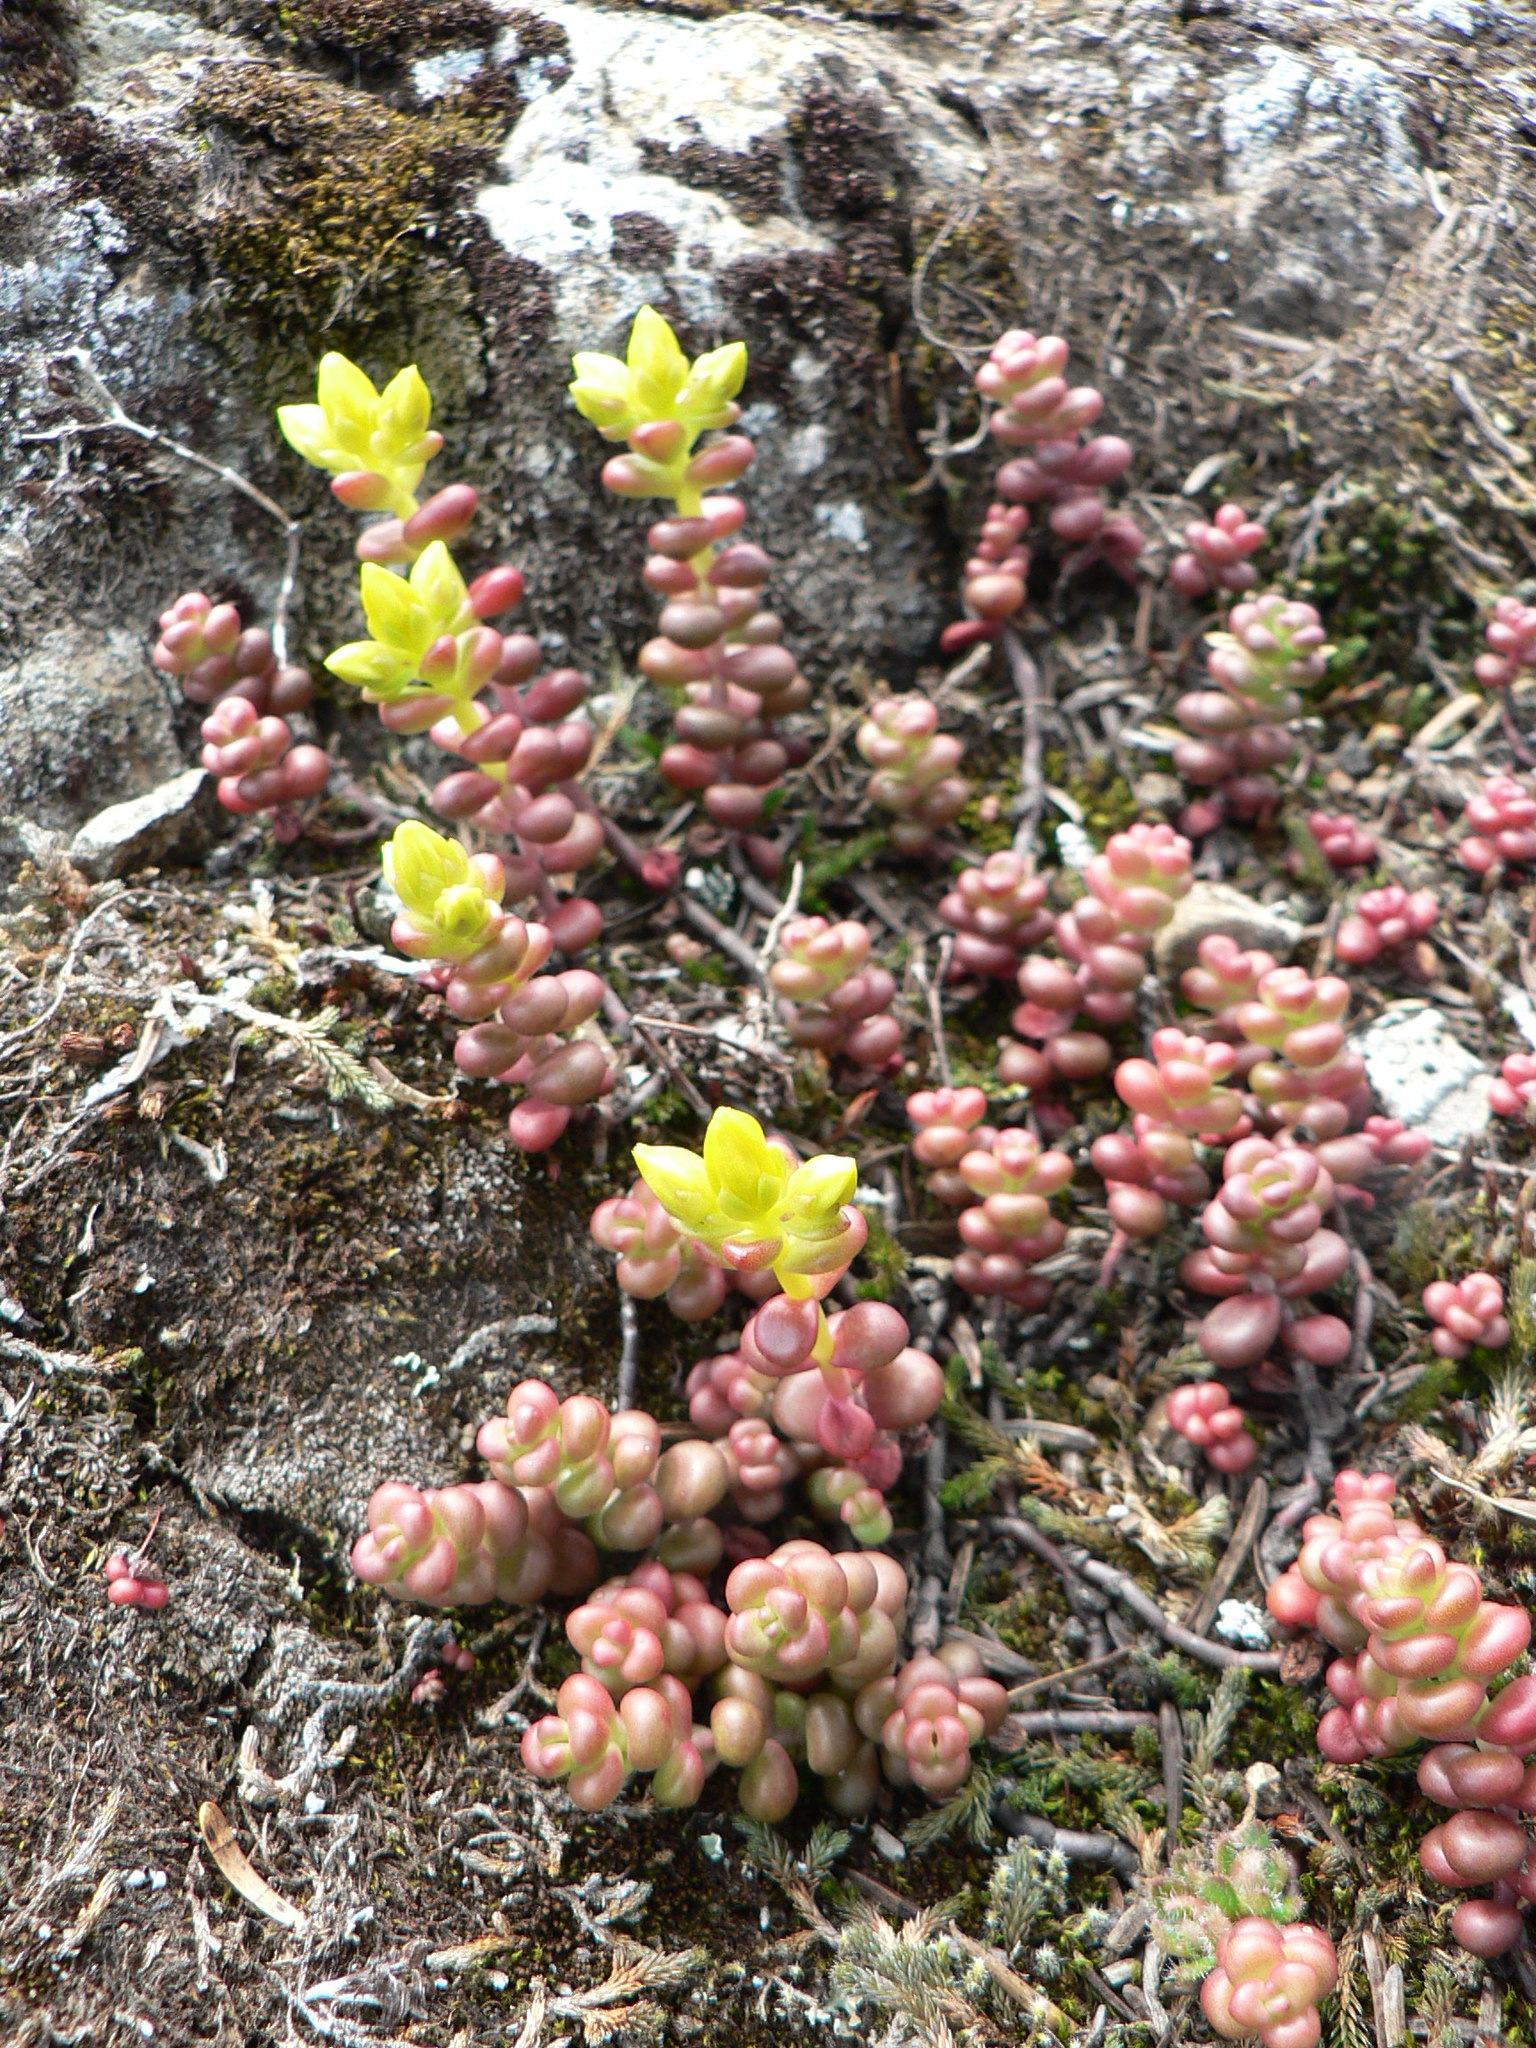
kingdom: Plantae
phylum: Tracheophyta
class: Magnoliopsida
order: Saxifragales
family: Crassulaceae
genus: Sedum
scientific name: Sedum divergens
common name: Cascade stonecrop
